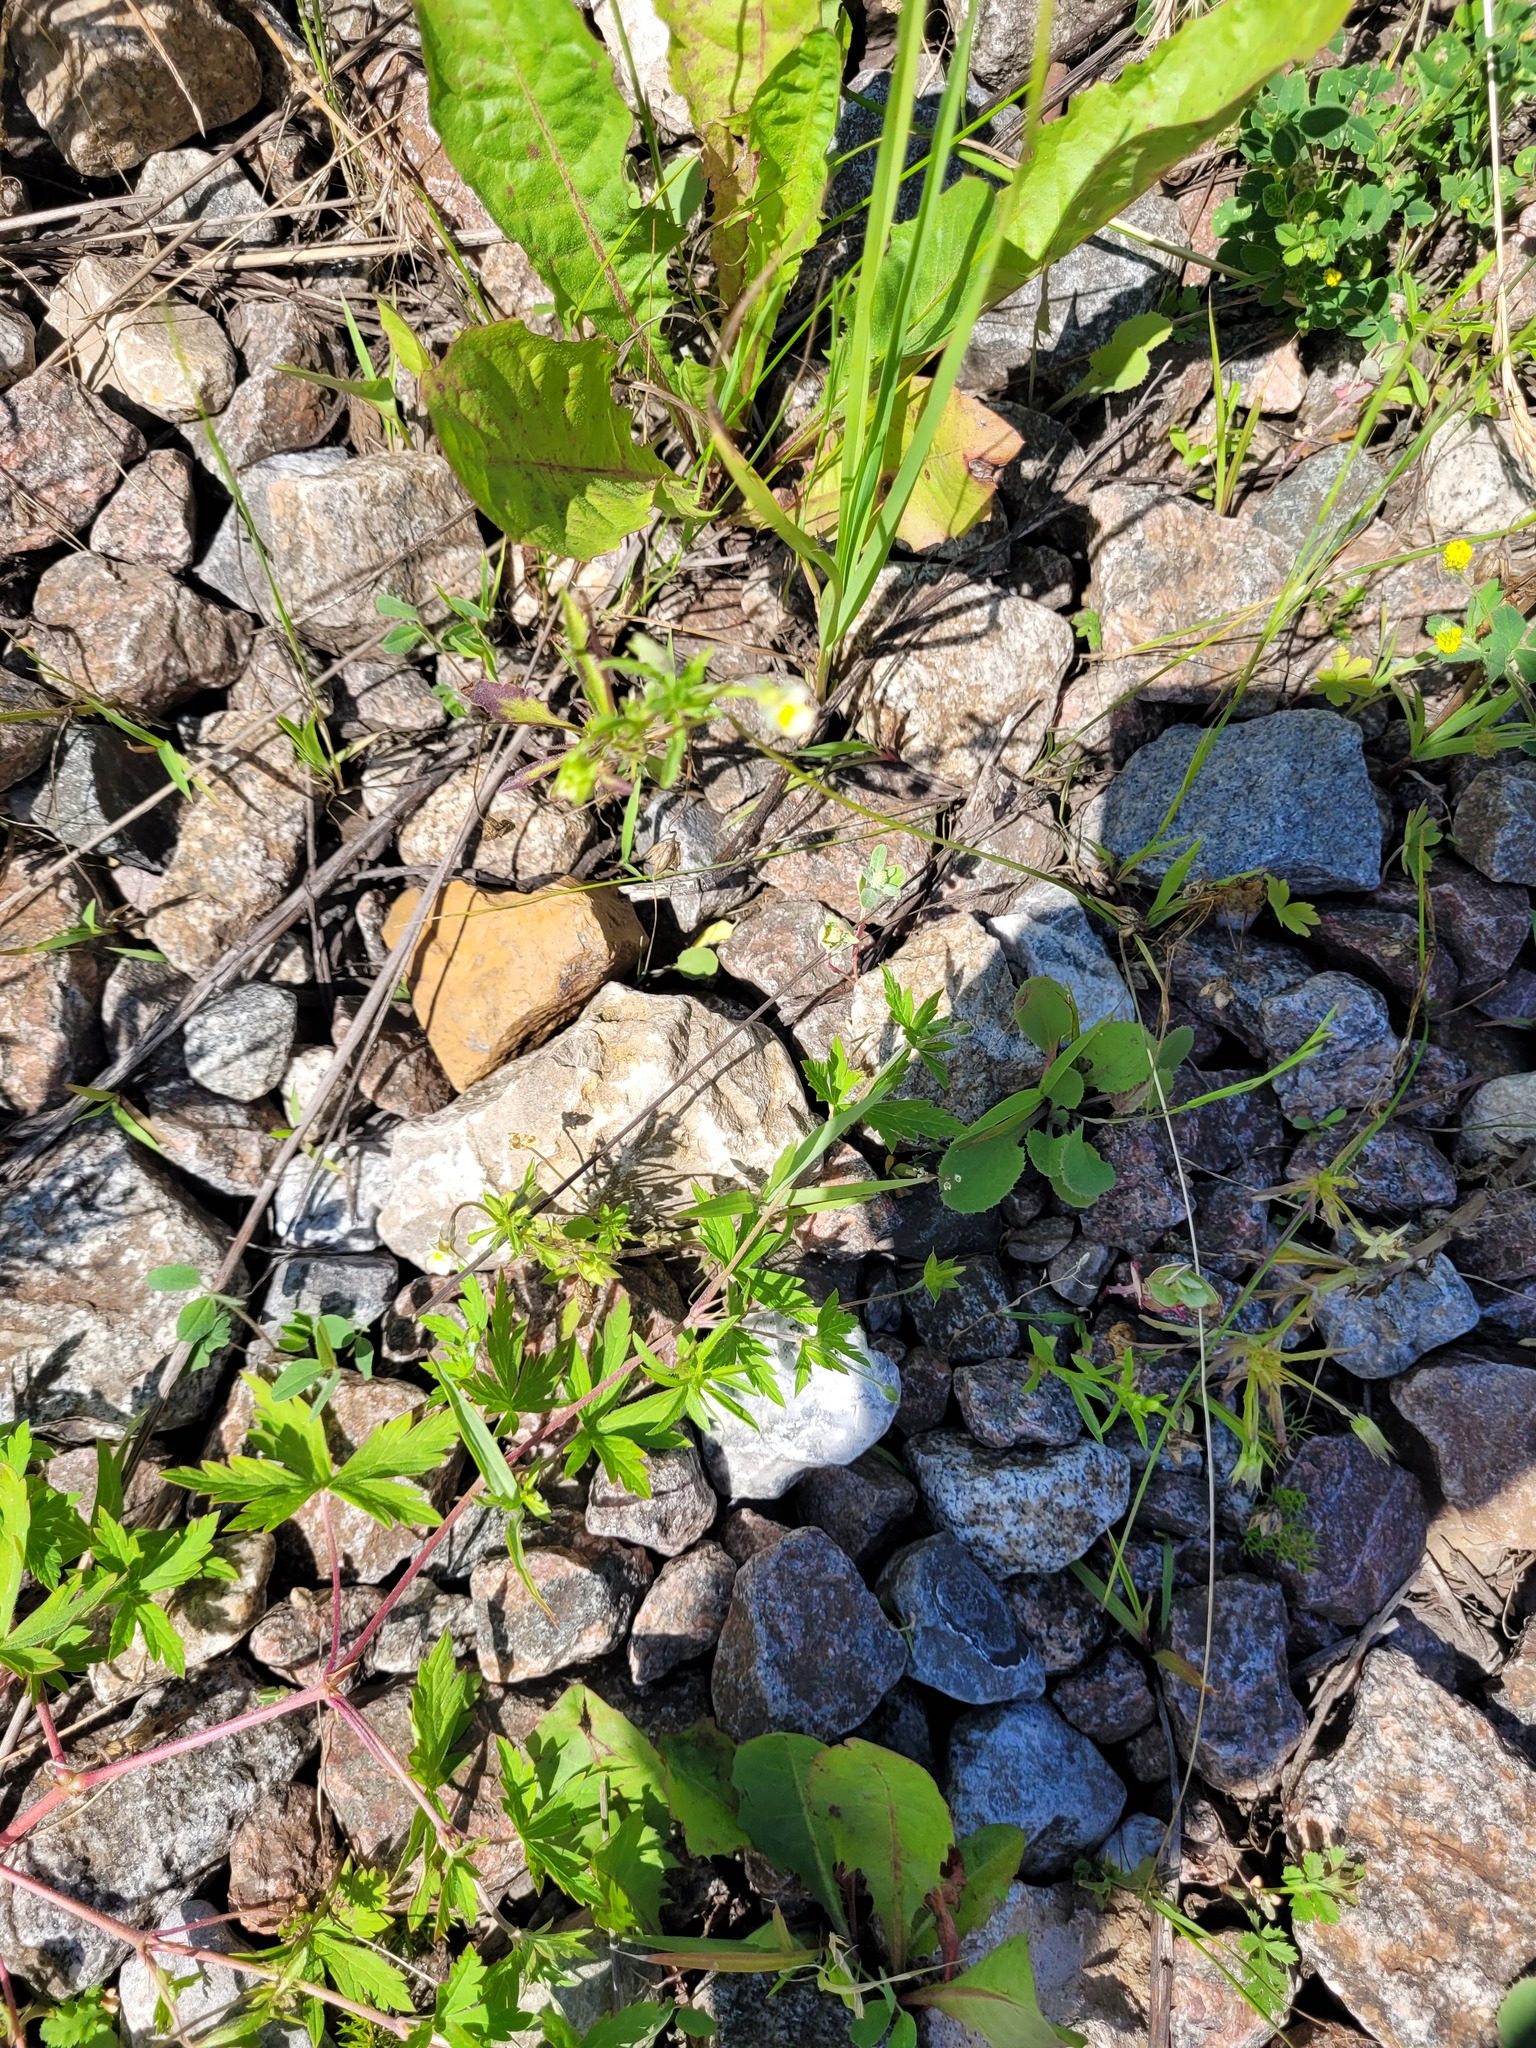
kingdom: Plantae
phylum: Tracheophyta
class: Magnoliopsida
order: Malpighiales
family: Violaceae
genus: Viola
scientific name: Viola arvensis
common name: Field pansy
